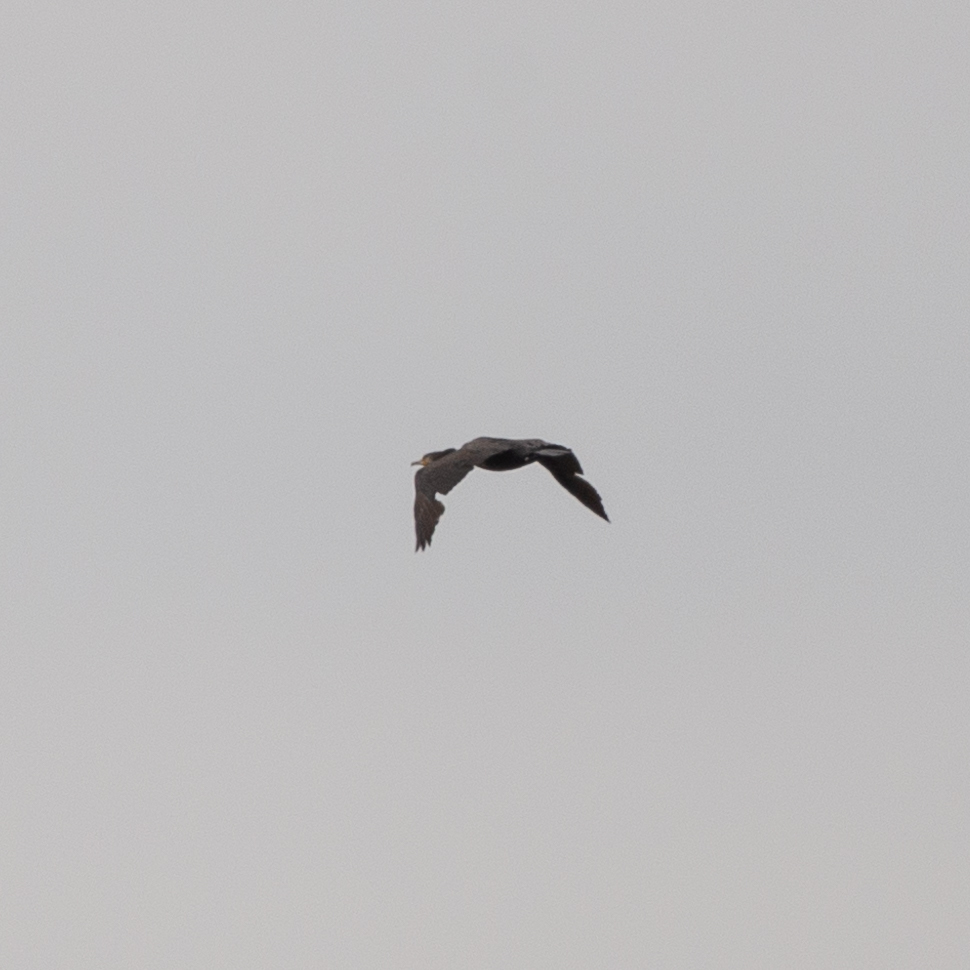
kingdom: Animalia
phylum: Chordata
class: Aves
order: Suliformes
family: Phalacrocoracidae
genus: Phalacrocorax
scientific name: Phalacrocorax carbo
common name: Great cormorant
